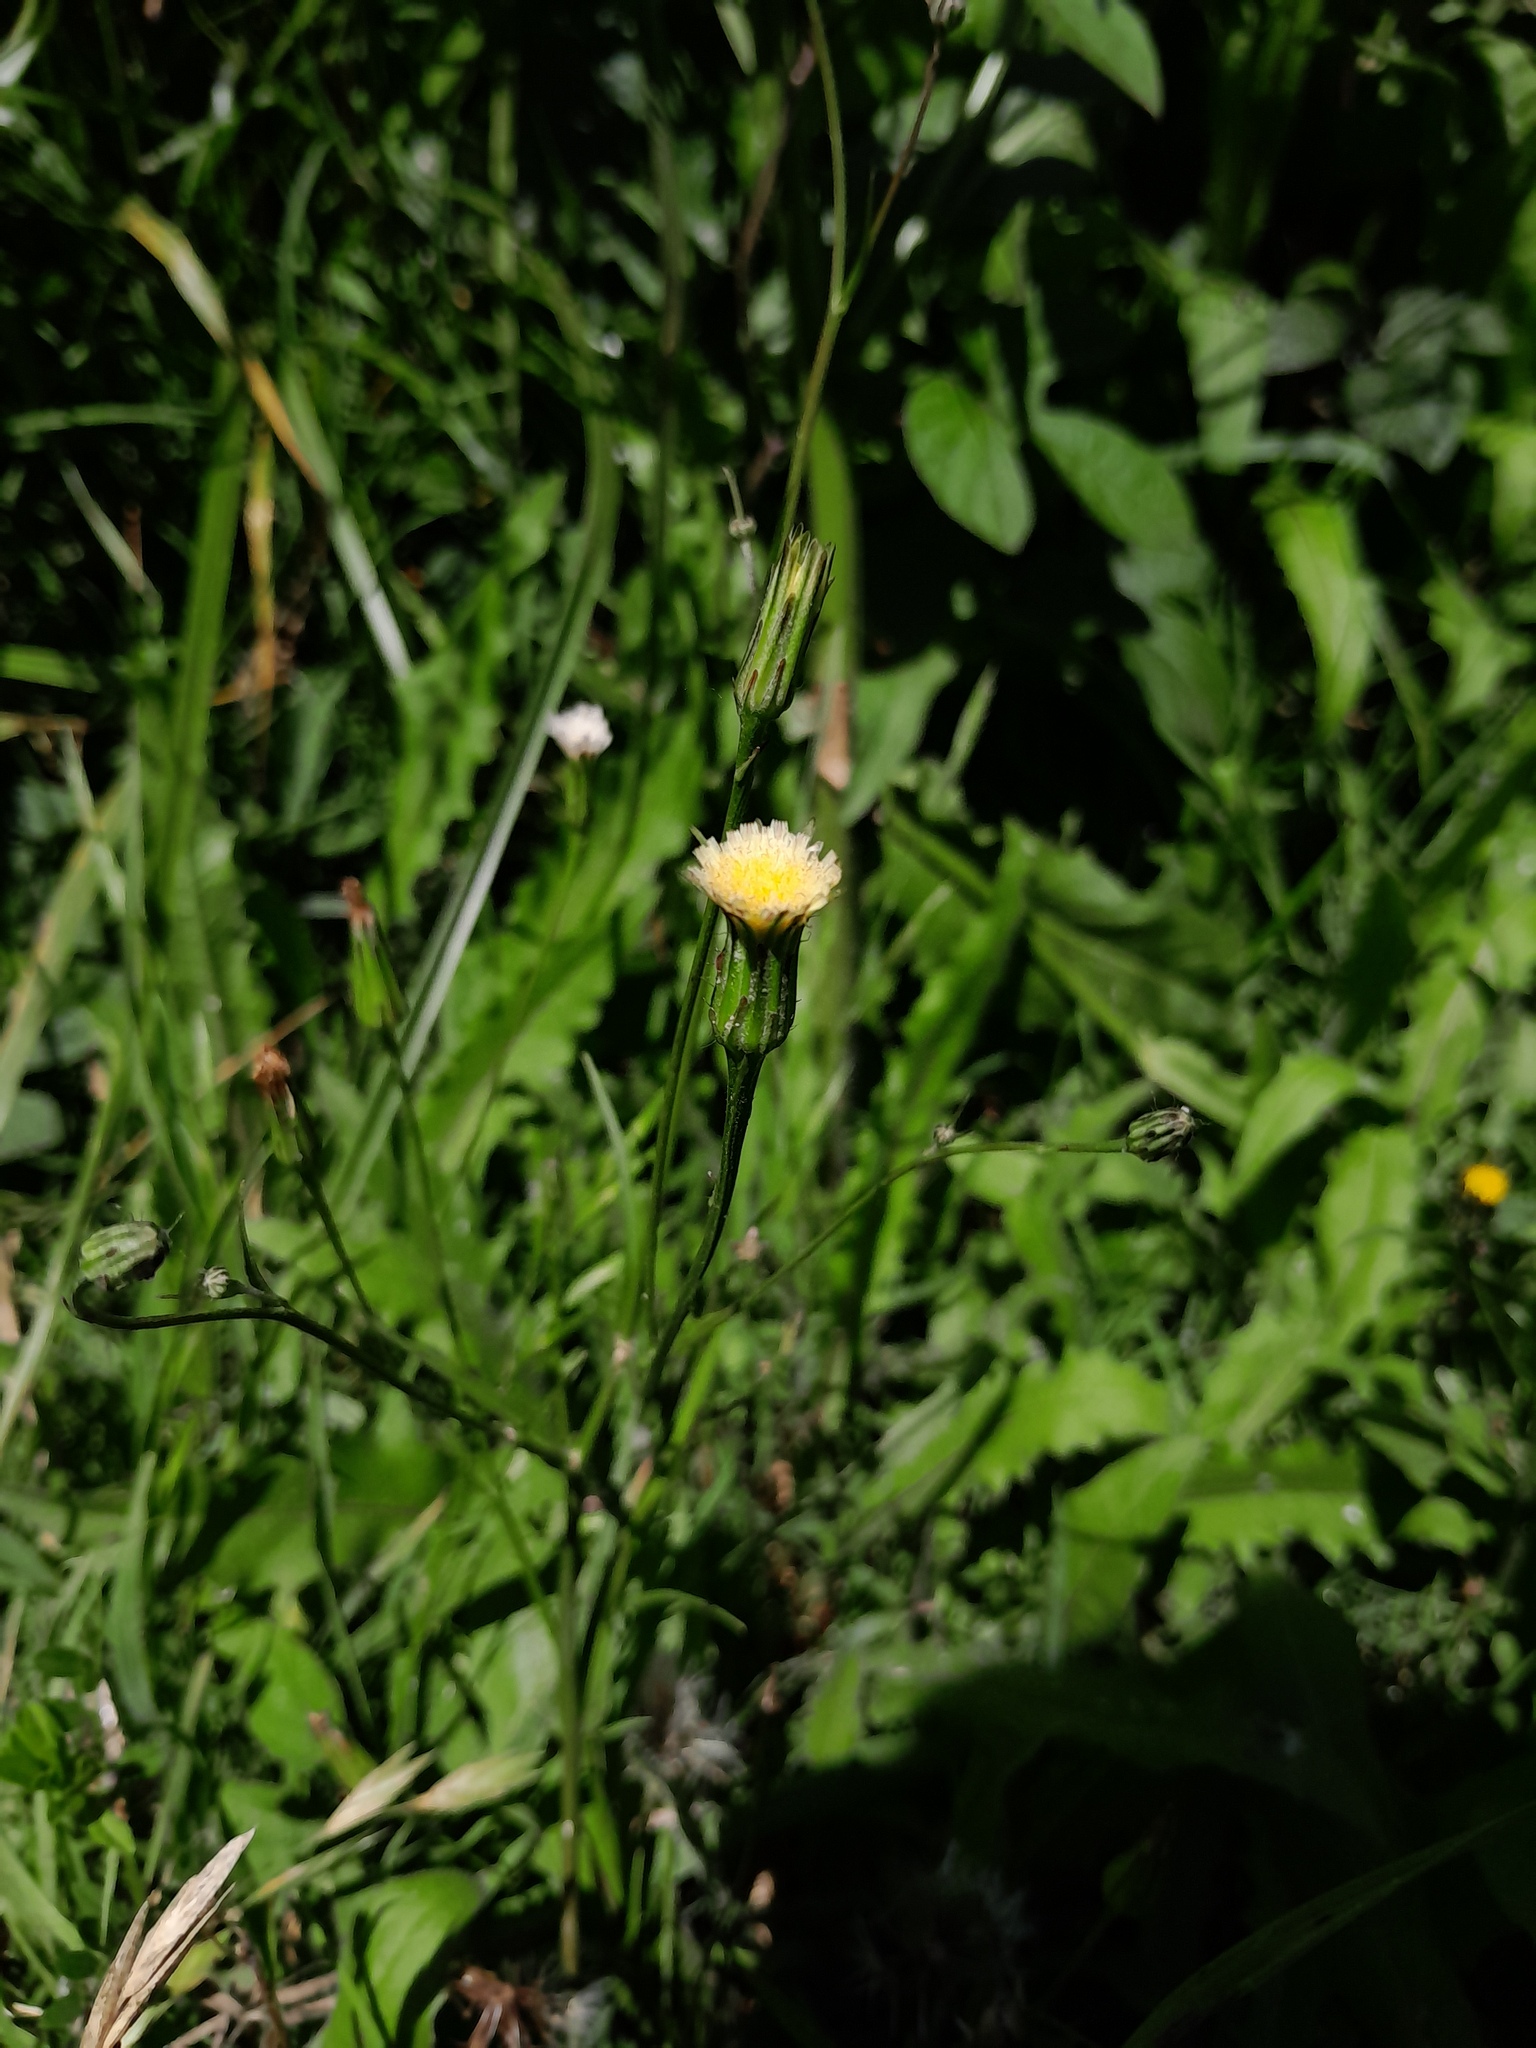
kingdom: Plantae
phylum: Tracheophyta
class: Magnoliopsida
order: Asterales
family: Asteraceae
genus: Hypochaeris
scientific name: Hypochaeris albiflora
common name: White flatweed
